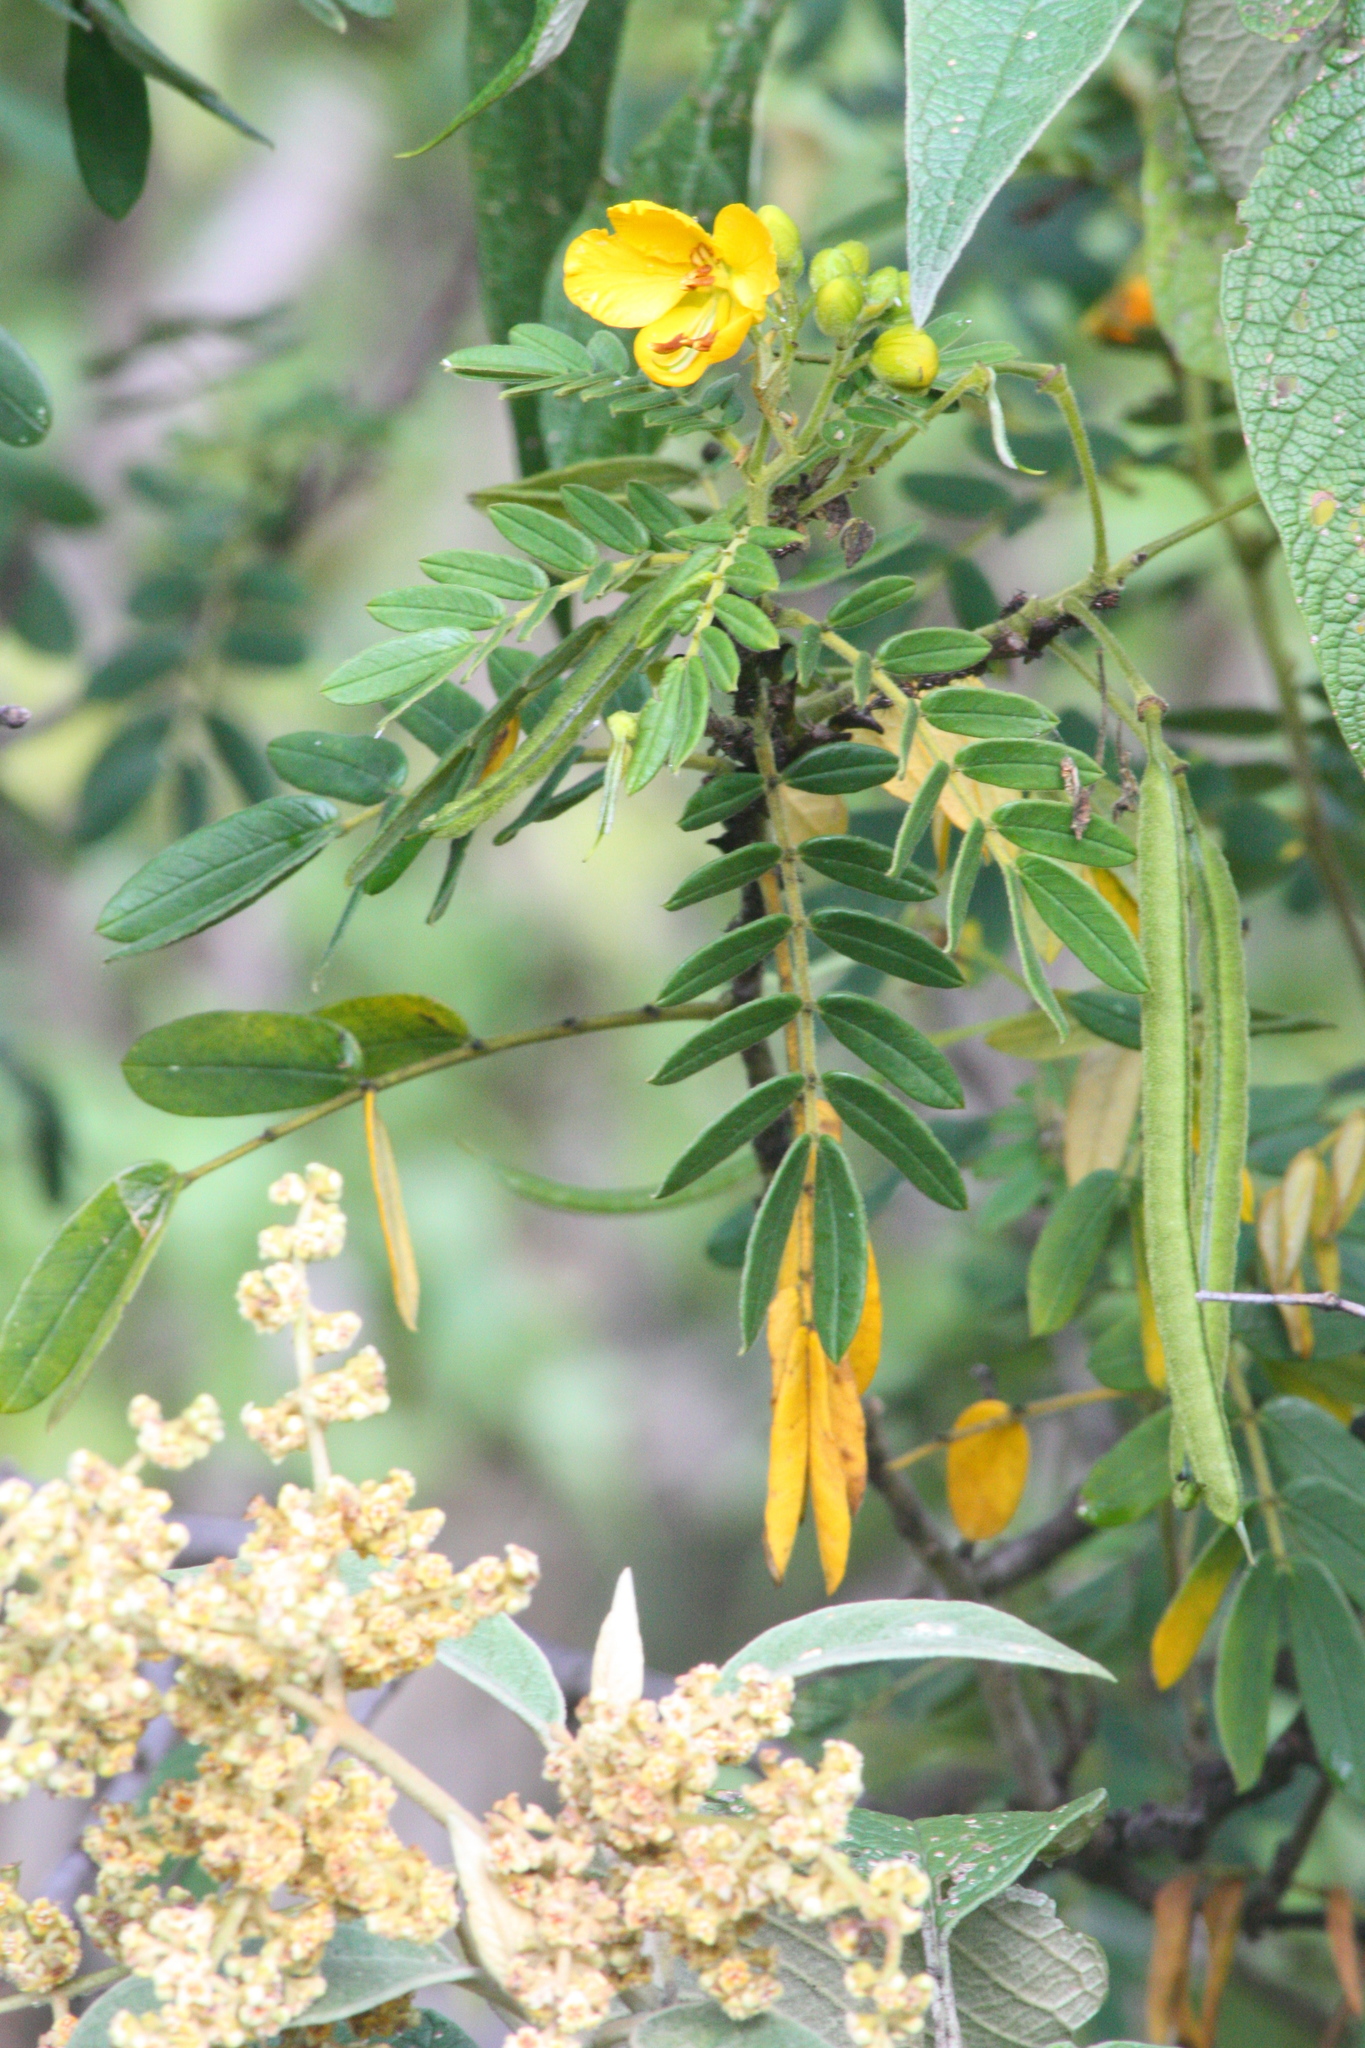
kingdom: Plantae
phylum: Tracheophyta
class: Magnoliopsida
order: Fabales
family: Fabaceae
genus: Senna
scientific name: Senna multiglandulosa
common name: Glandular senna
